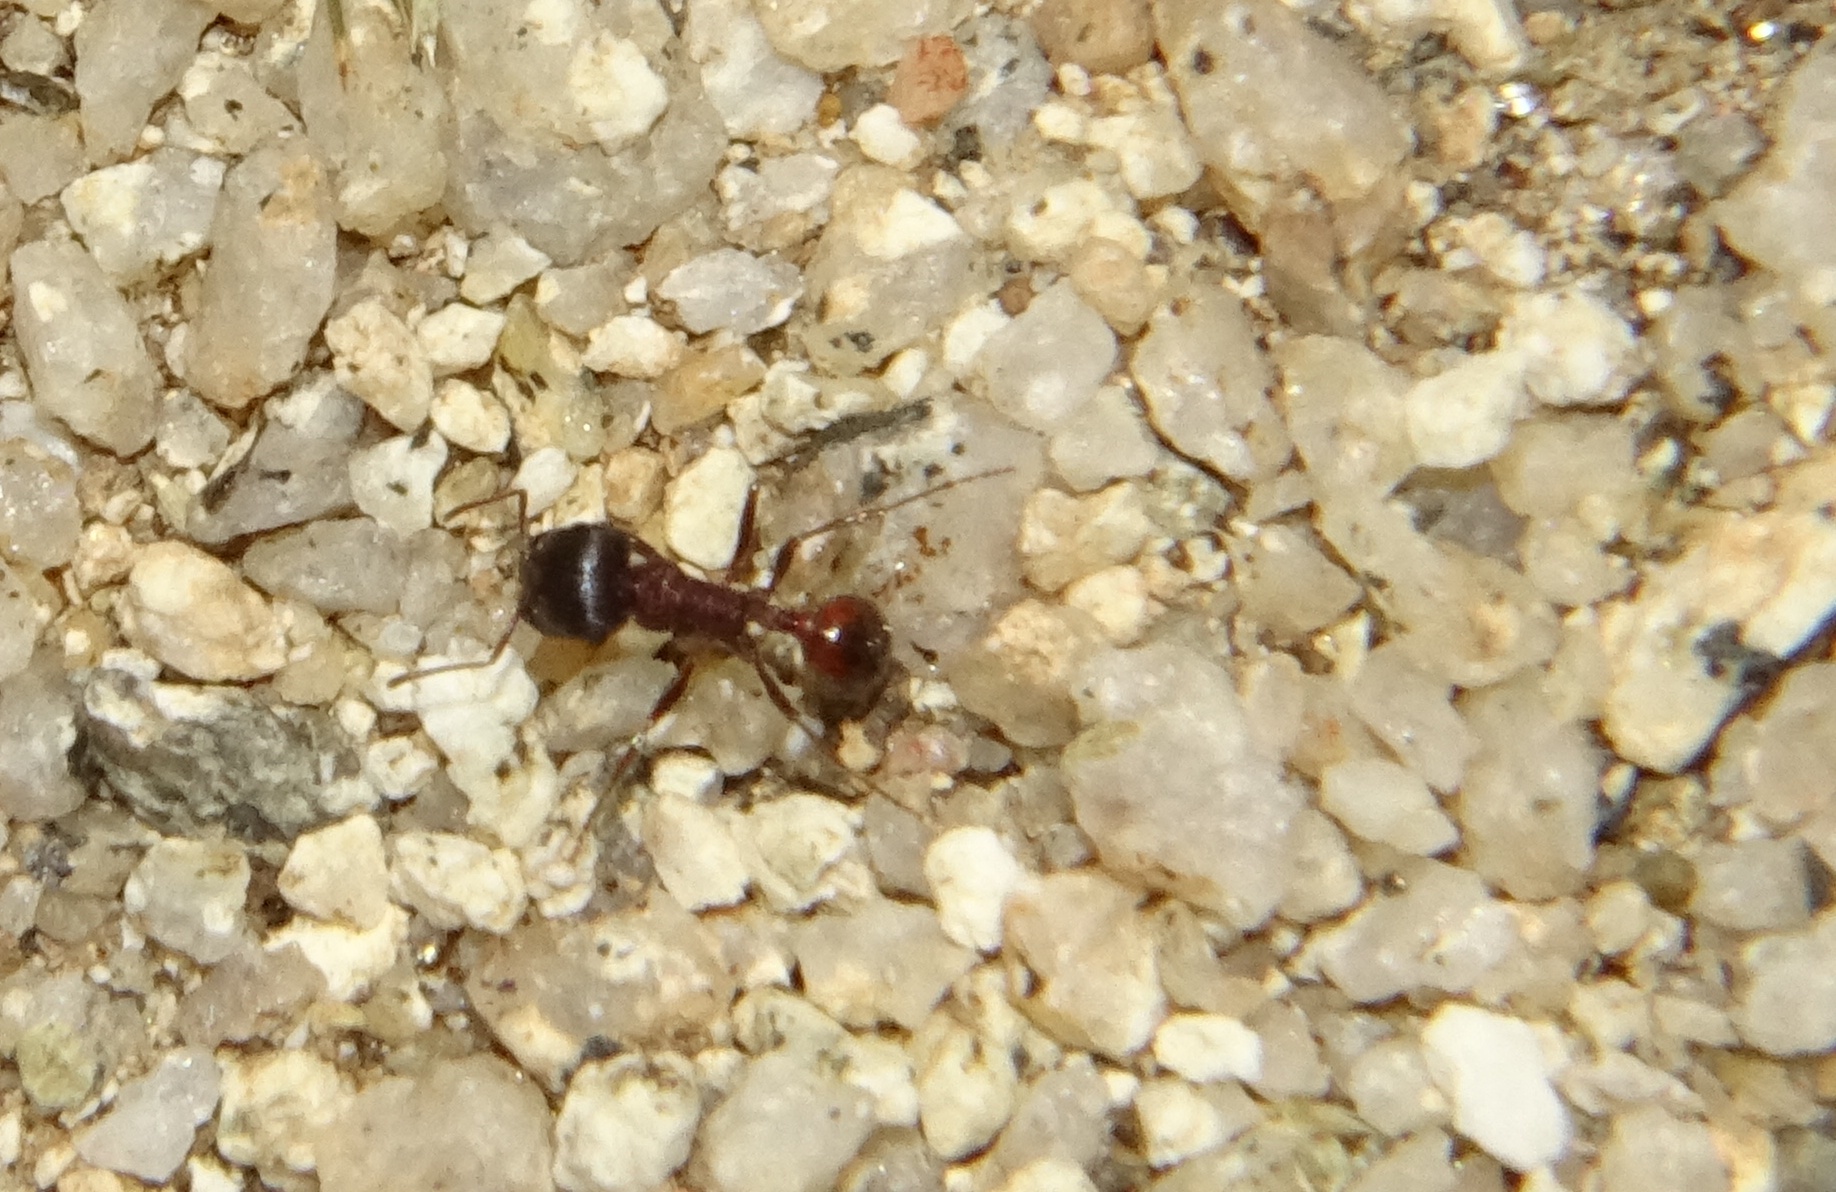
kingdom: Animalia
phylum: Arthropoda
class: Insecta
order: Hymenoptera
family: Formicidae
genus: Pogonomyrmex
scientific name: Pogonomyrmex rugosus
